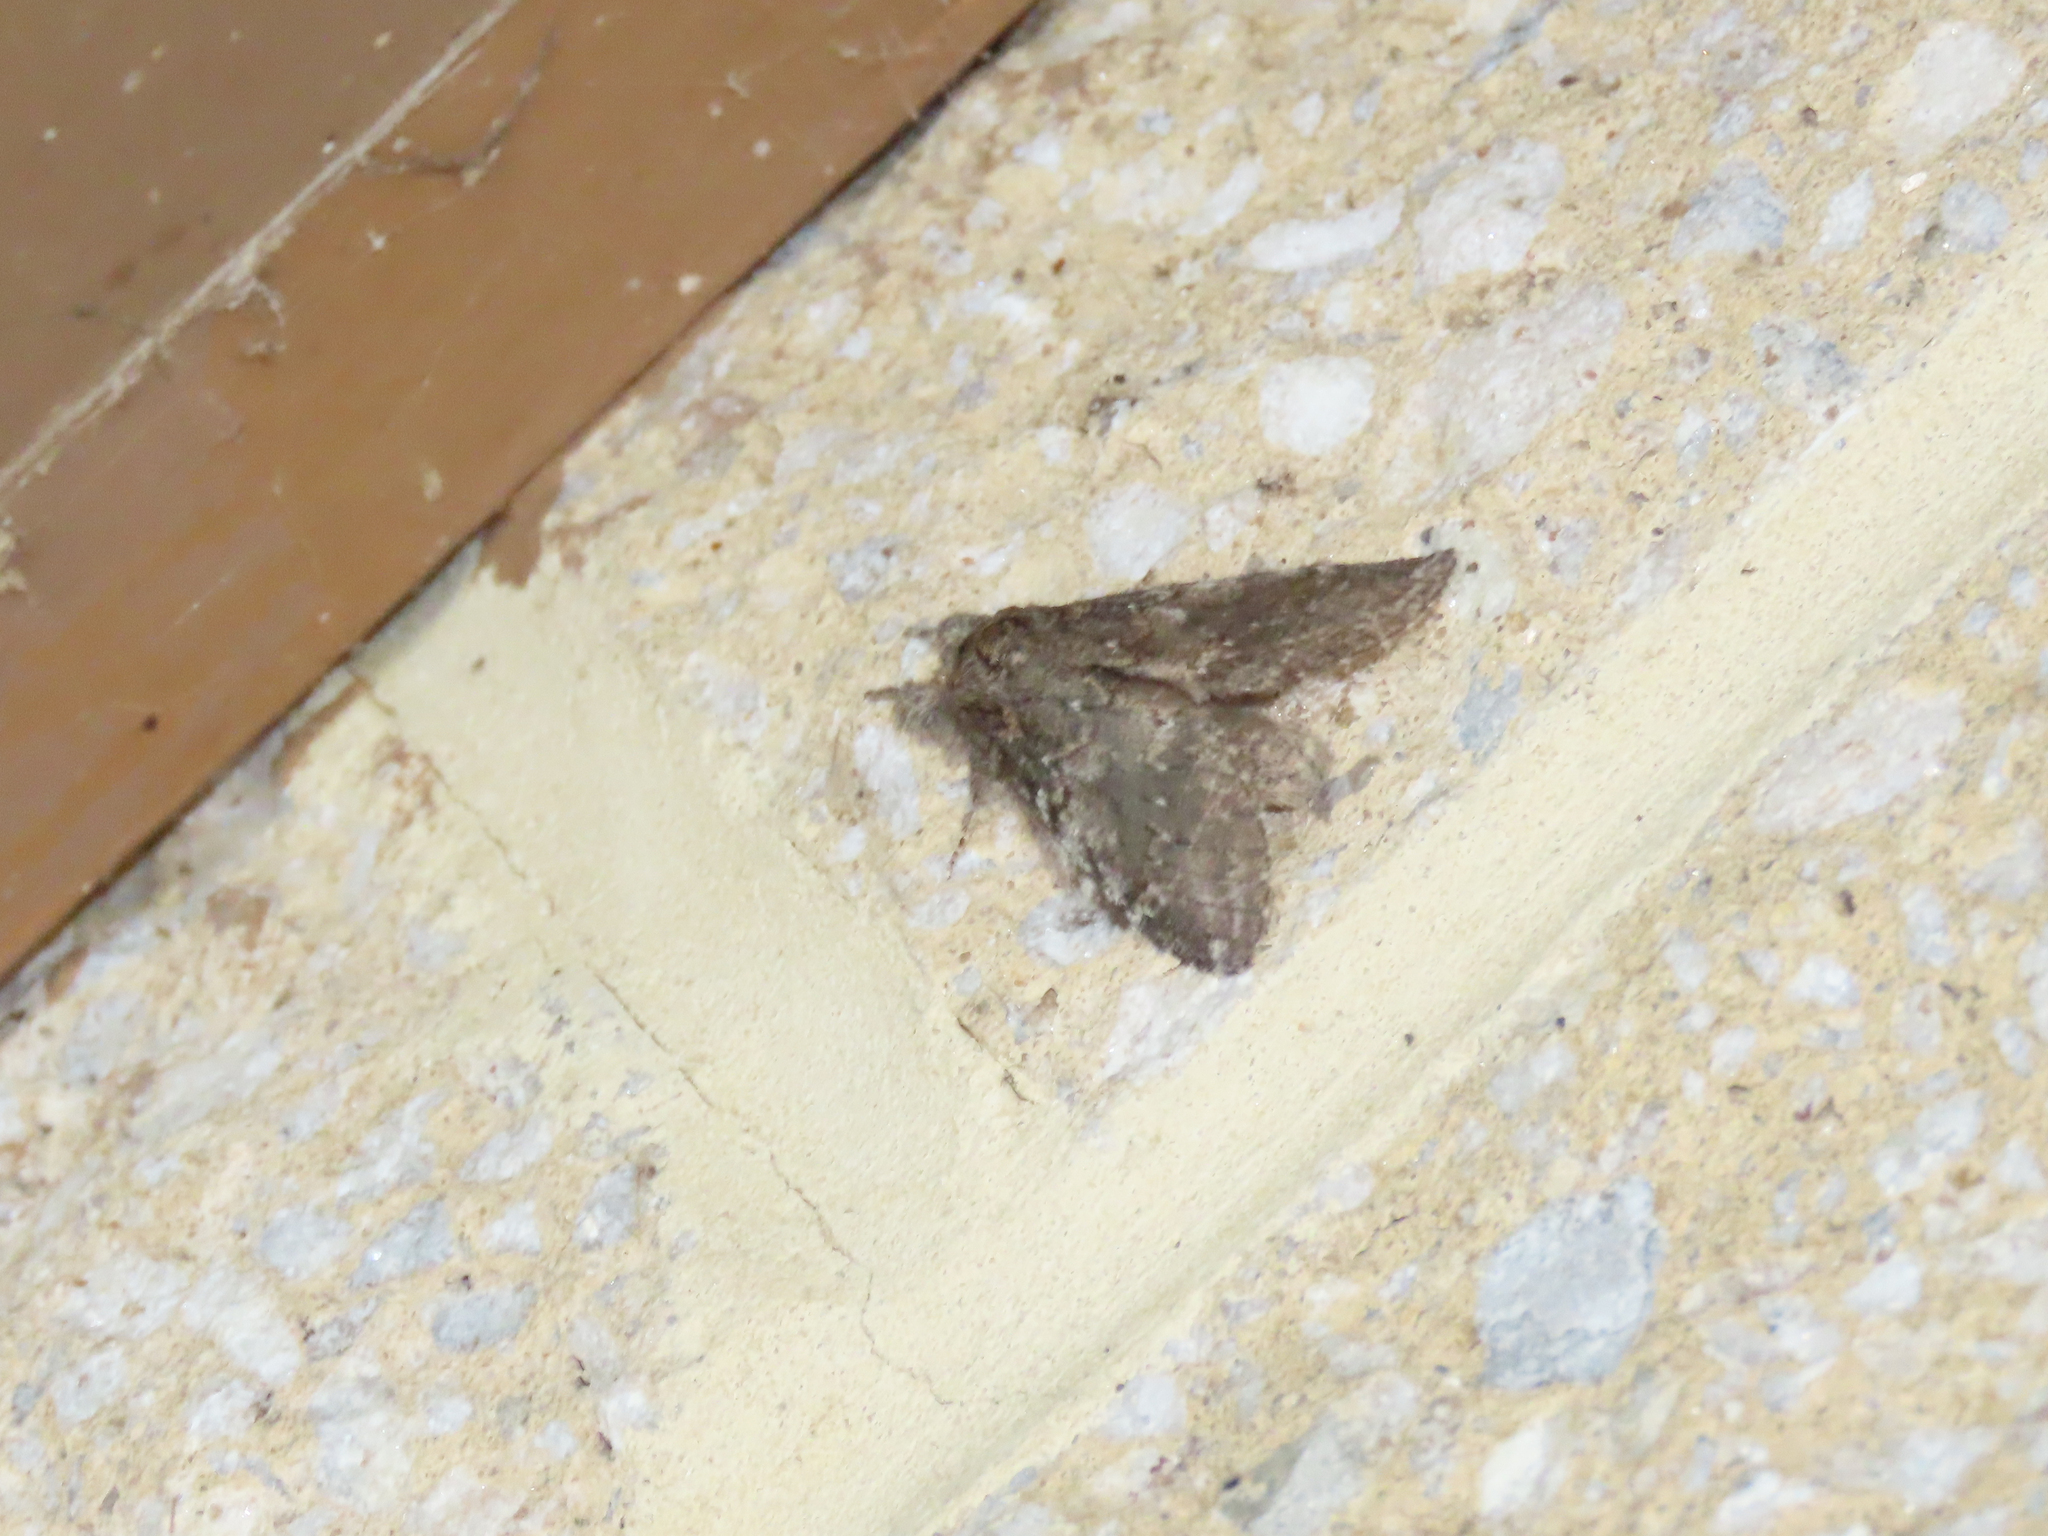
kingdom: Animalia
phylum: Arthropoda
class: Insecta
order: Lepidoptera
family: Notodontidae
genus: Peridea
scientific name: Peridea angulosa
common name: Angulose prominent
